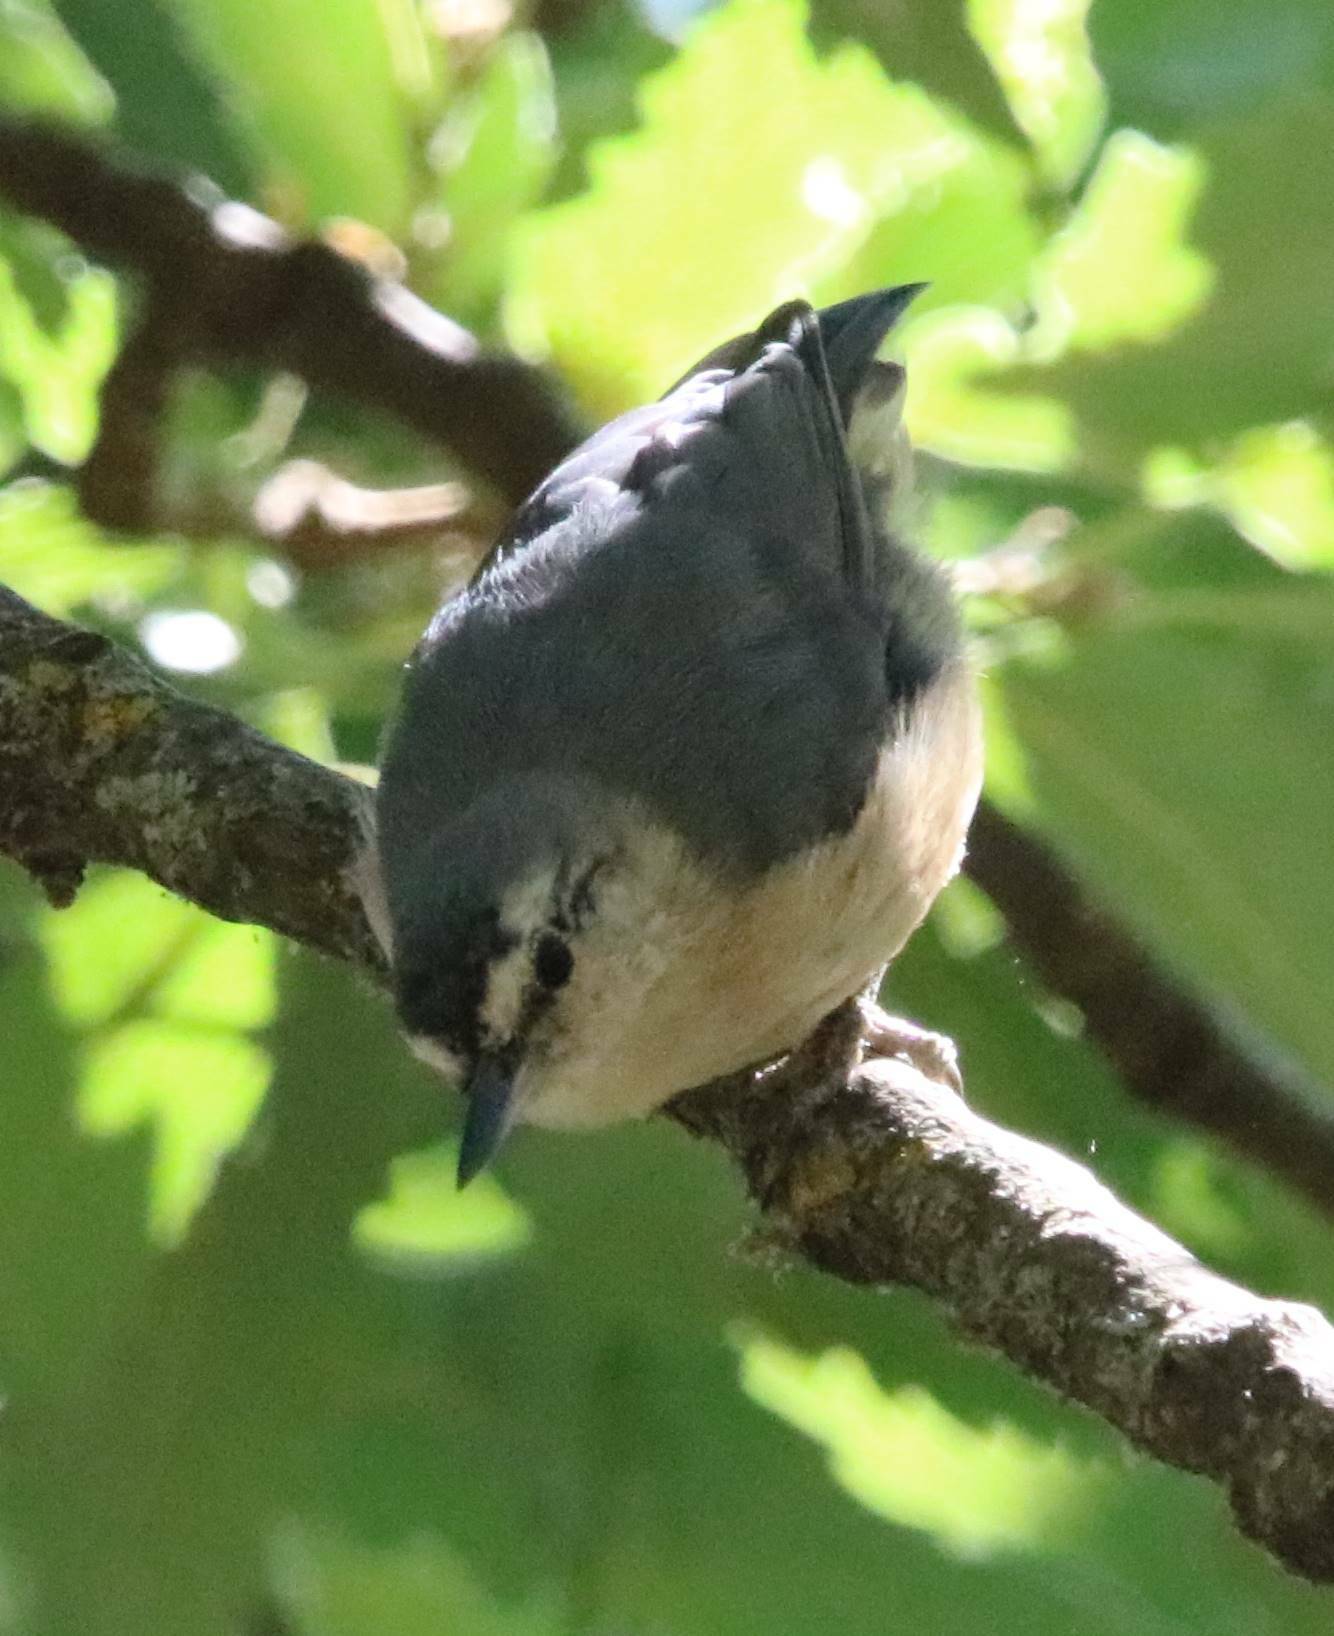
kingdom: Animalia
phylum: Chordata
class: Aves
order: Passeriformes
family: Sittidae
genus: Sitta
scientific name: Sitta ledanti
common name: Algerian nuthatch
